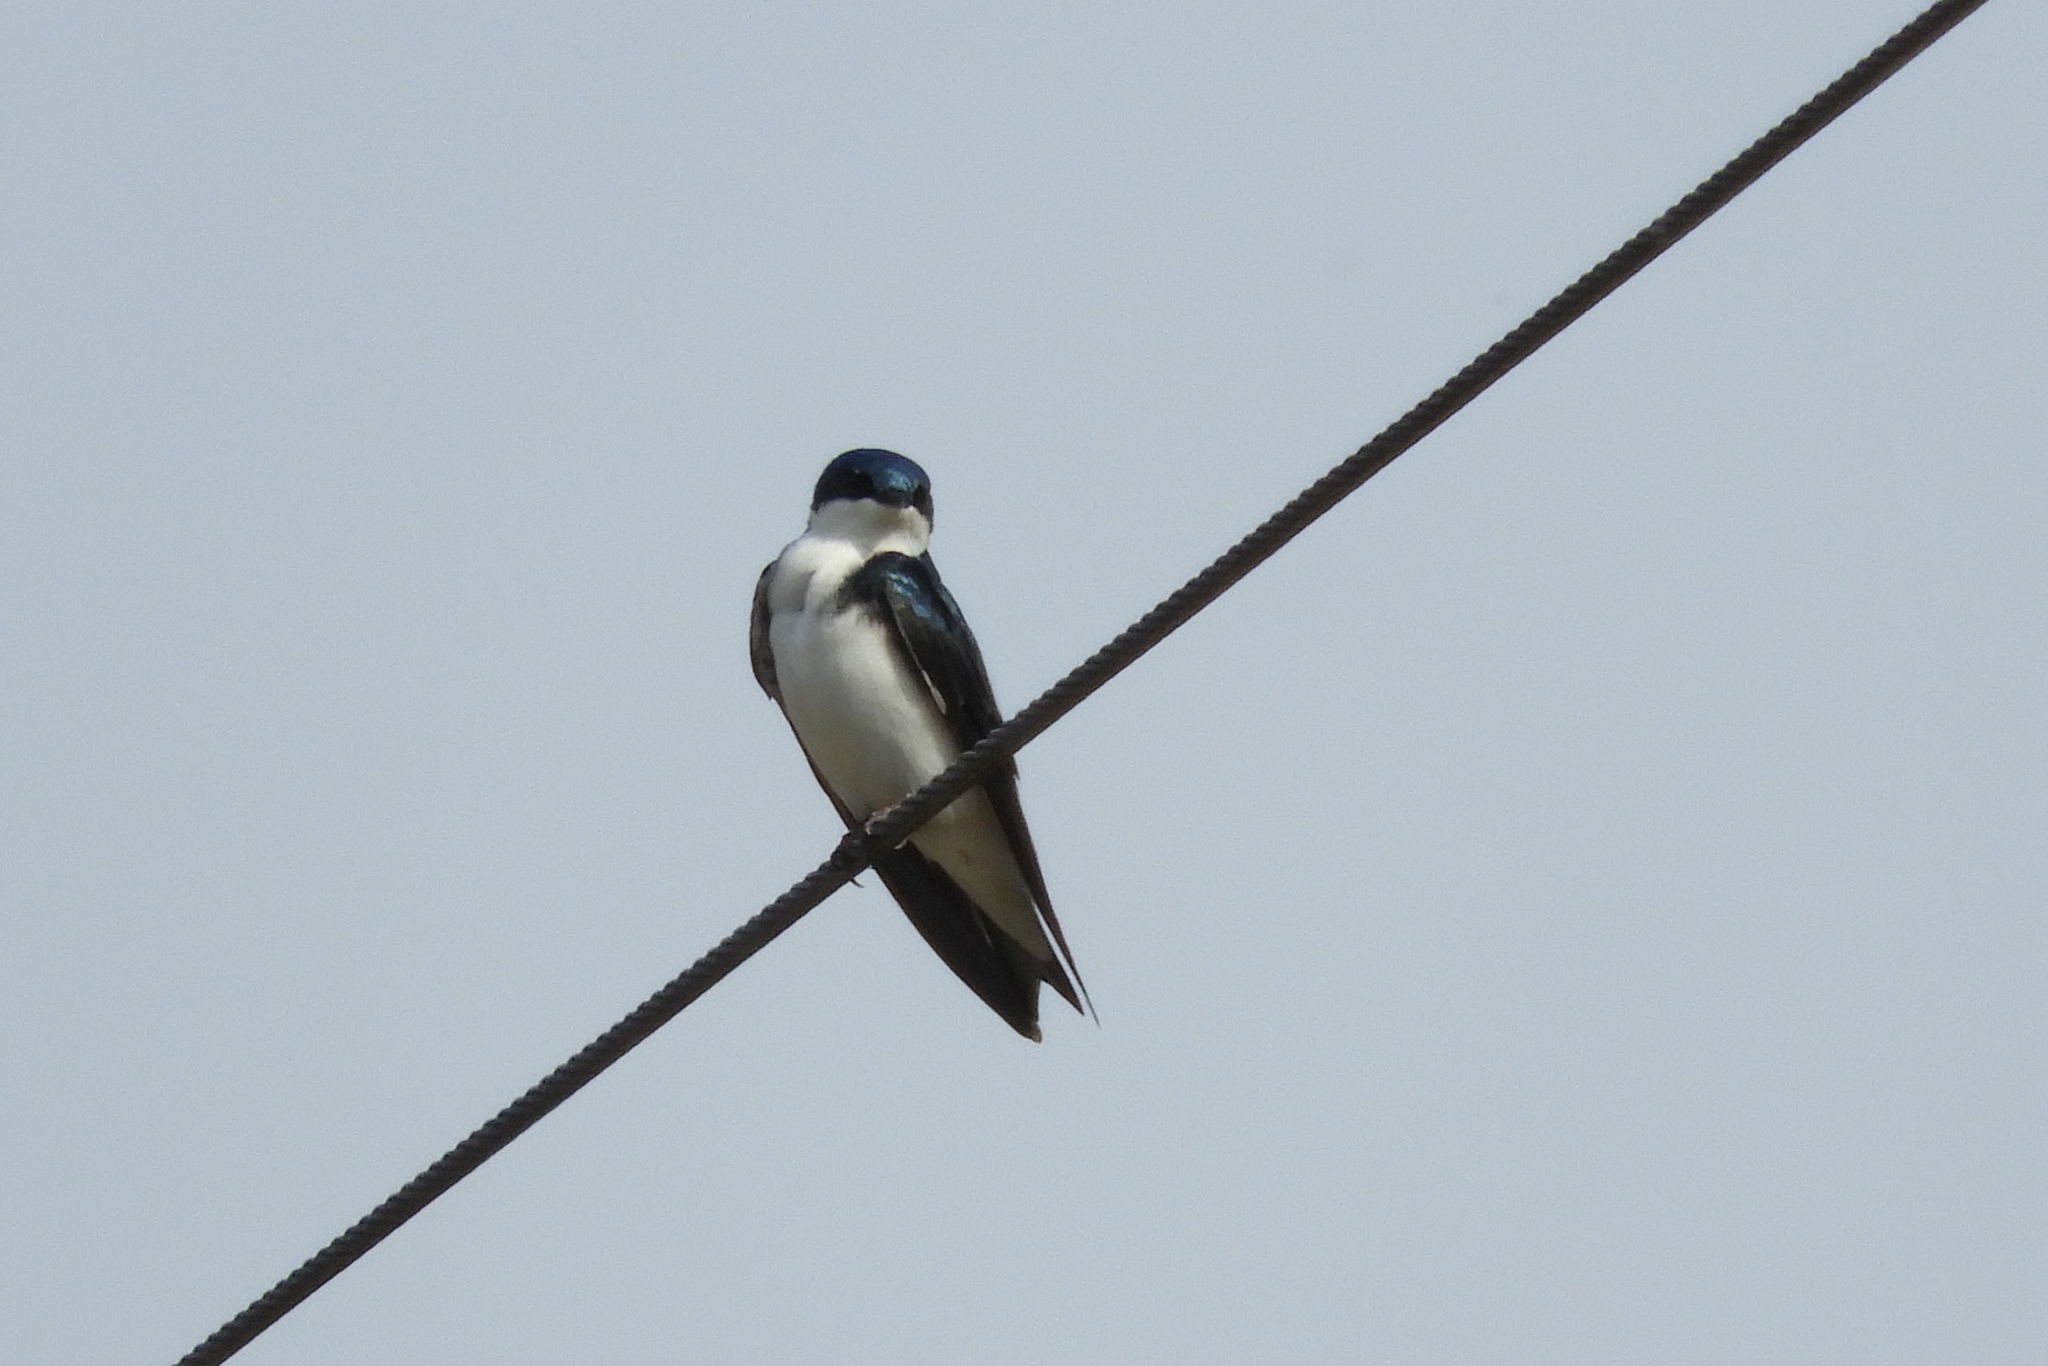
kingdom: Animalia
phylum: Chordata
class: Aves
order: Passeriformes
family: Hirundinidae
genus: Tachycineta
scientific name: Tachycineta bicolor
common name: Tree swallow
